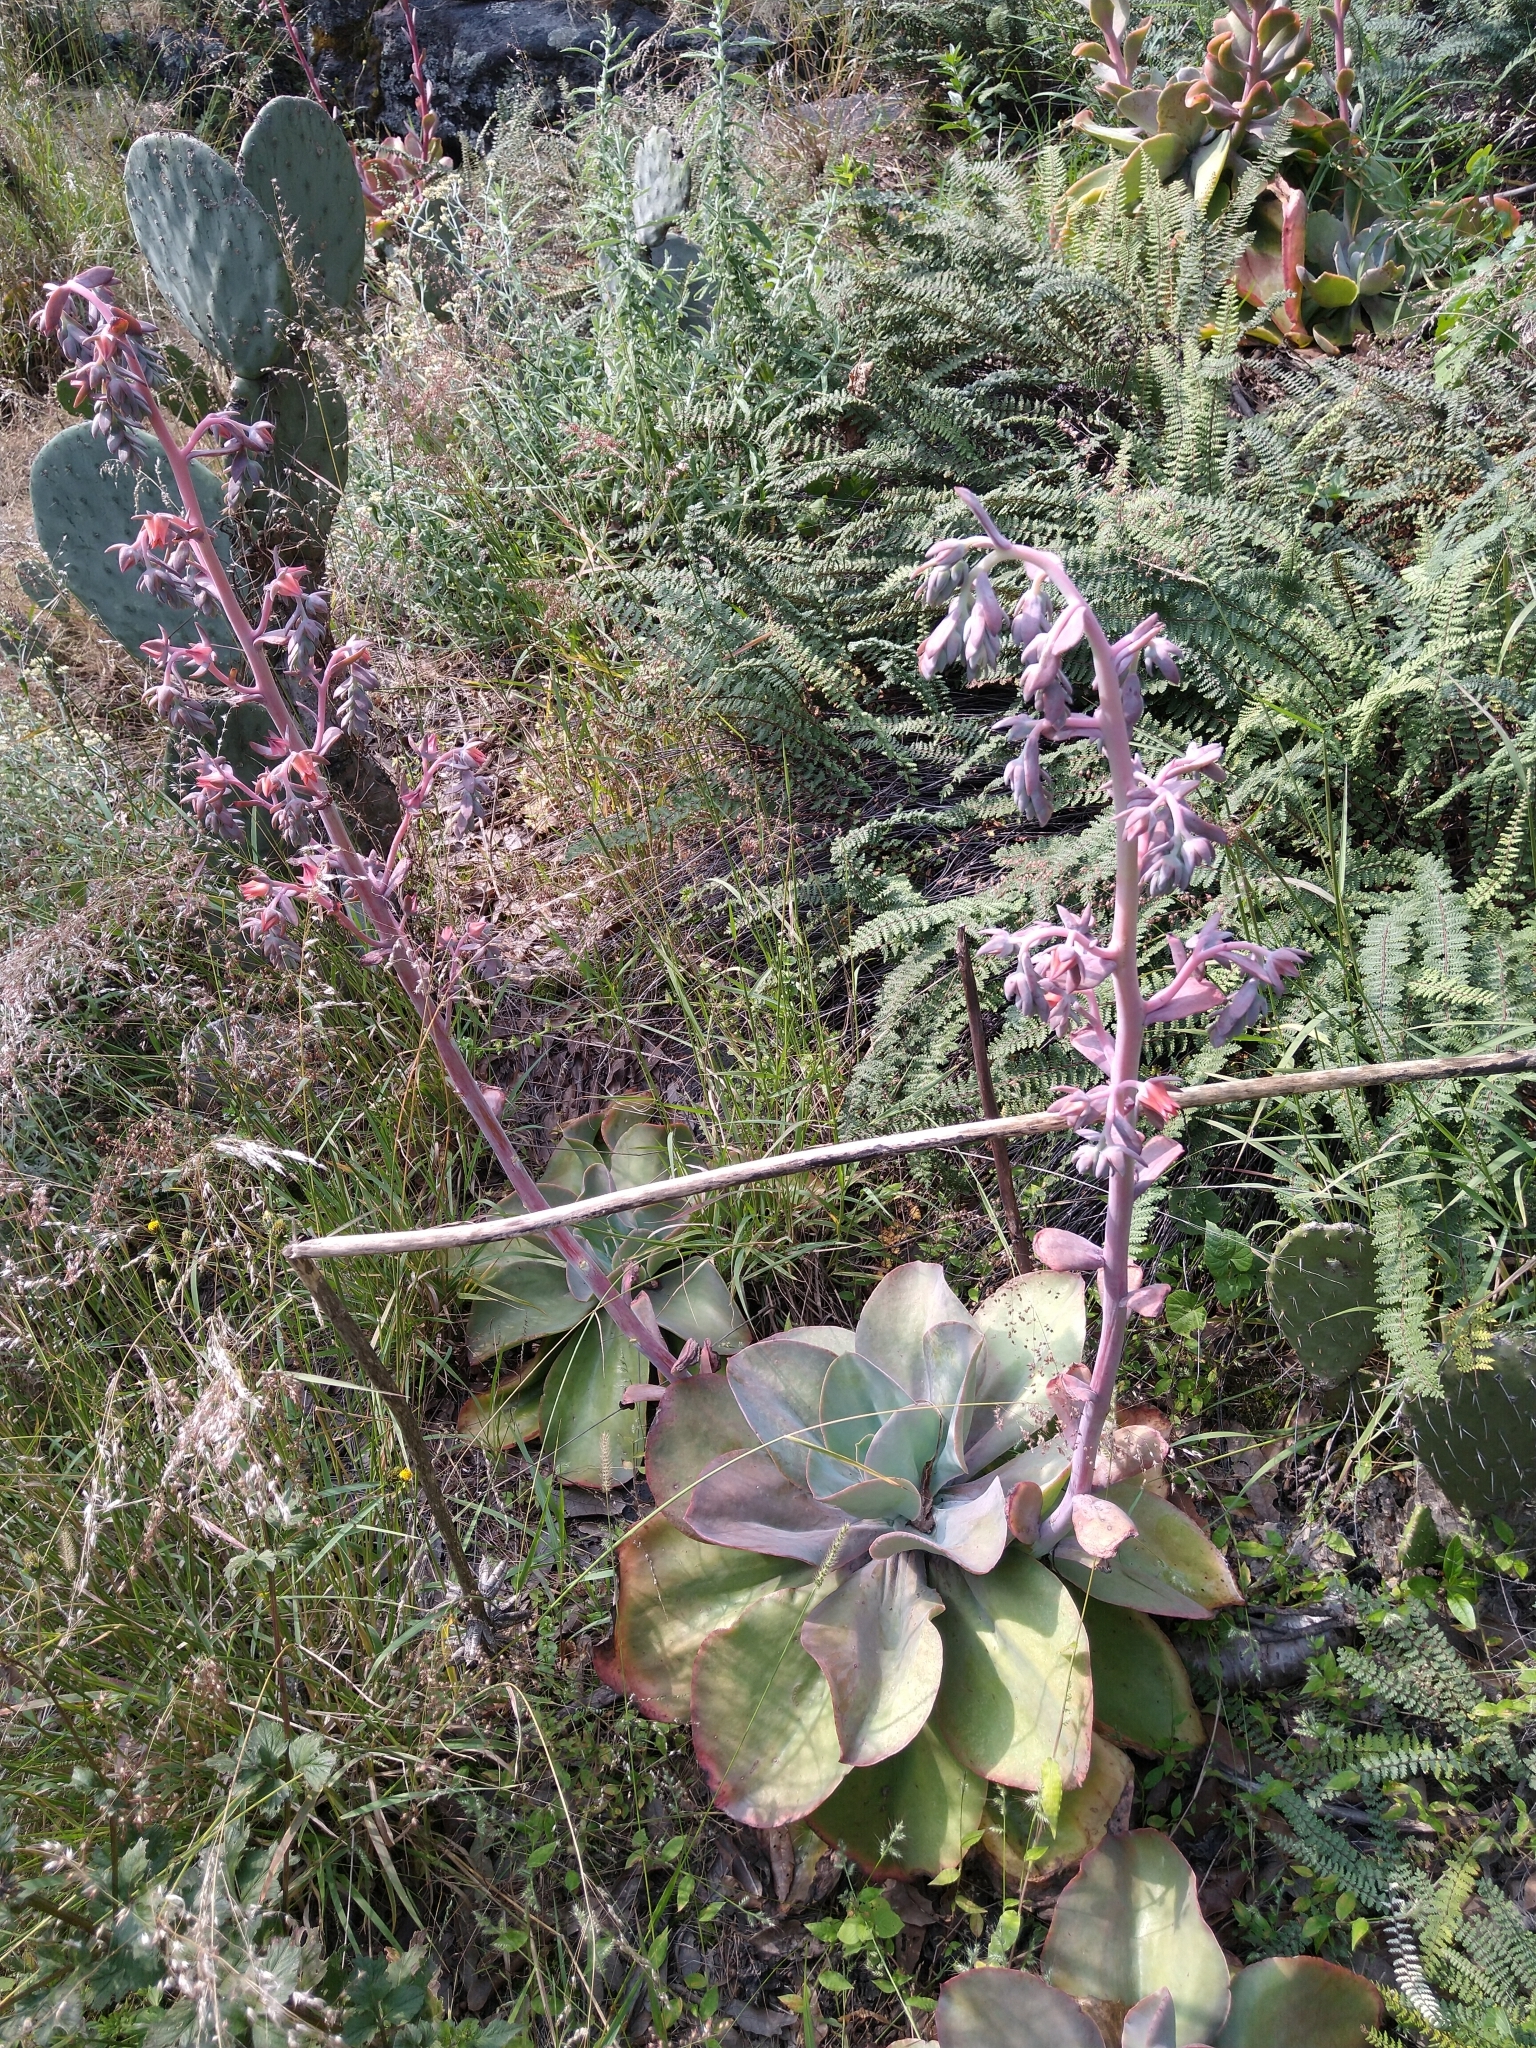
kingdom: Plantae
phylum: Tracheophyta
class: Magnoliopsida
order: Saxifragales
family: Crassulaceae
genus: Echeveria
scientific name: Echeveria gibbiflora
